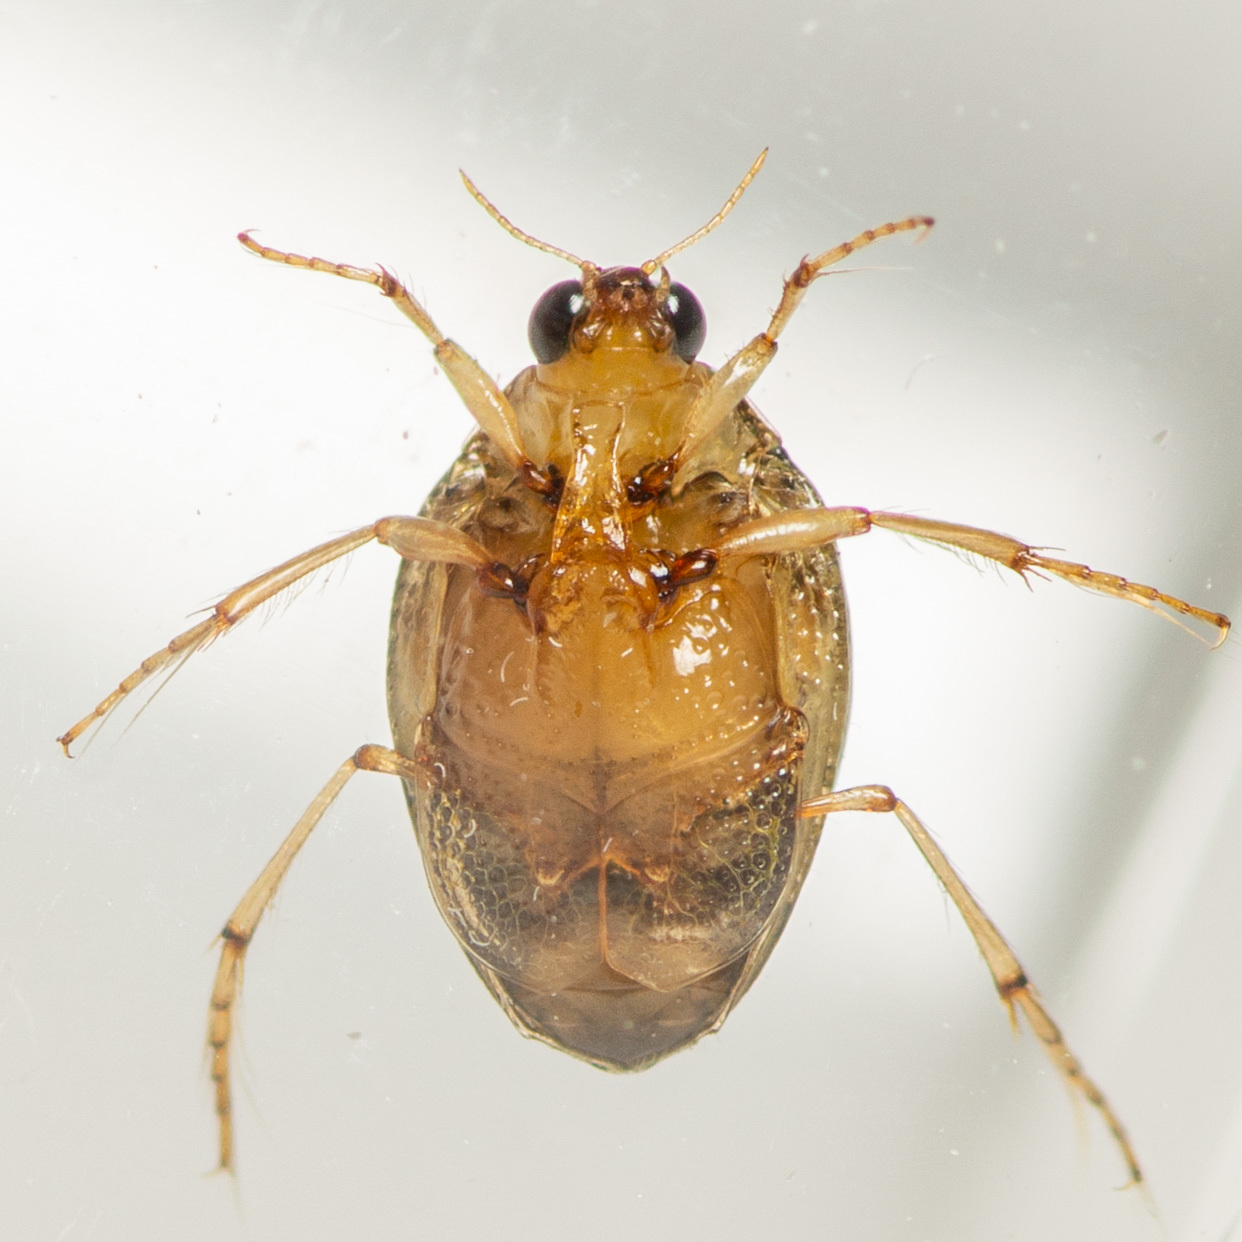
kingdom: Animalia
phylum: Arthropoda
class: Insecta
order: Coleoptera
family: Haliplidae
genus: Peltodytes
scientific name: Peltodytes litoralis
